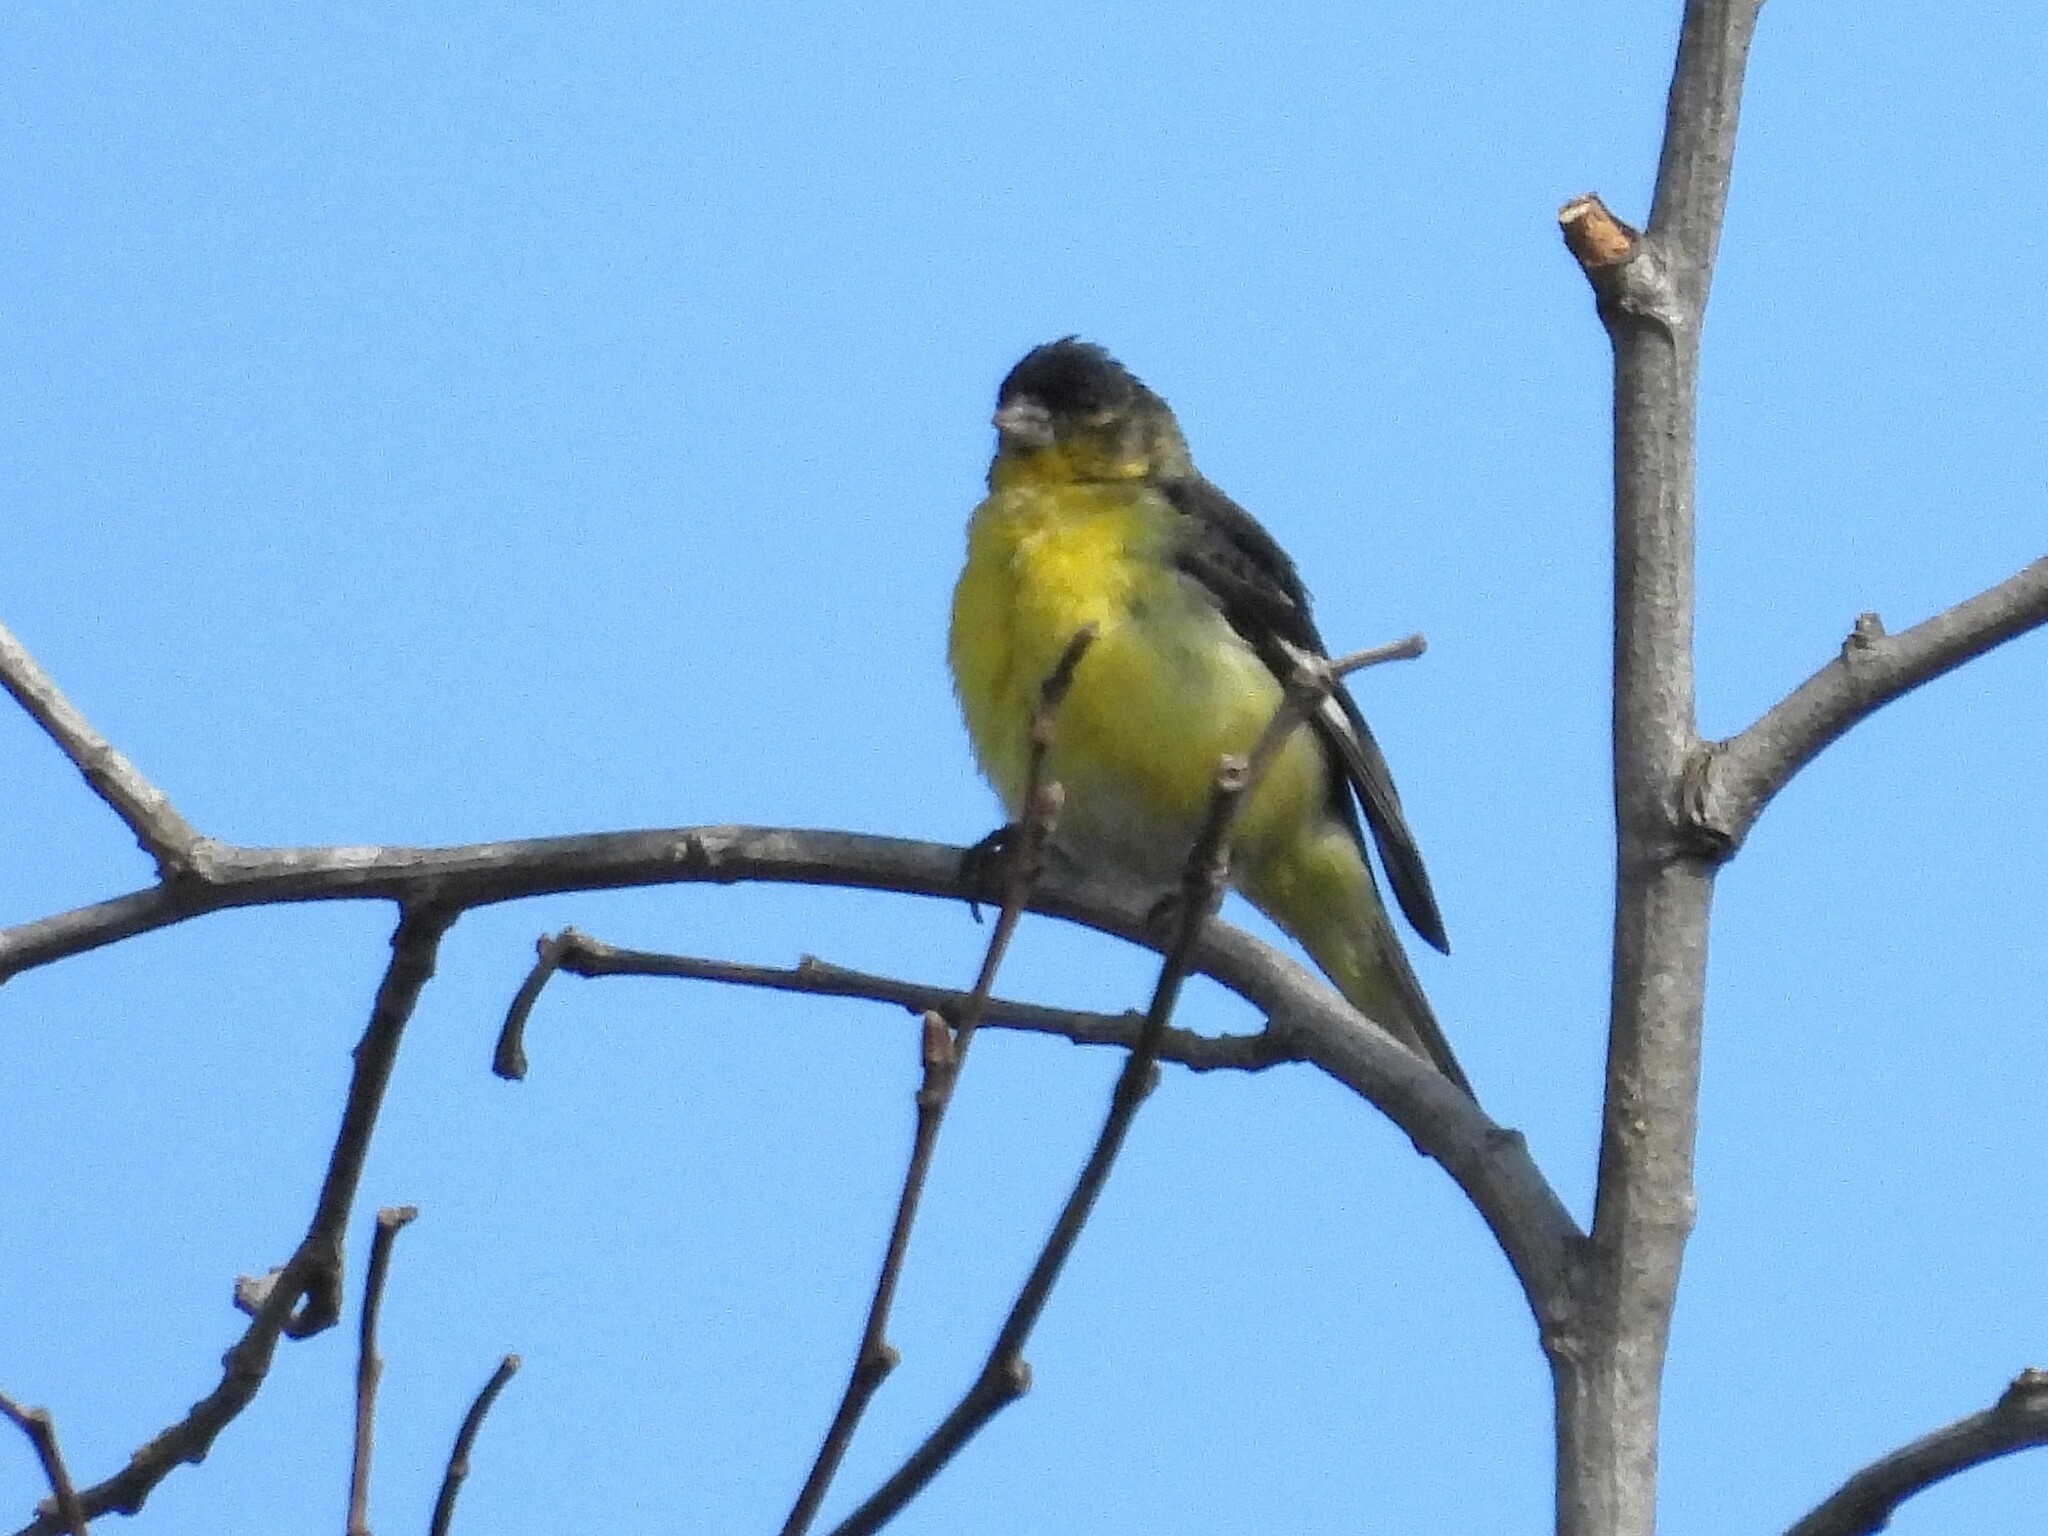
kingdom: Animalia
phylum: Chordata
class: Aves
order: Passeriformes
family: Fringillidae
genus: Spinus
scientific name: Spinus psaltria
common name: Lesser goldfinch
